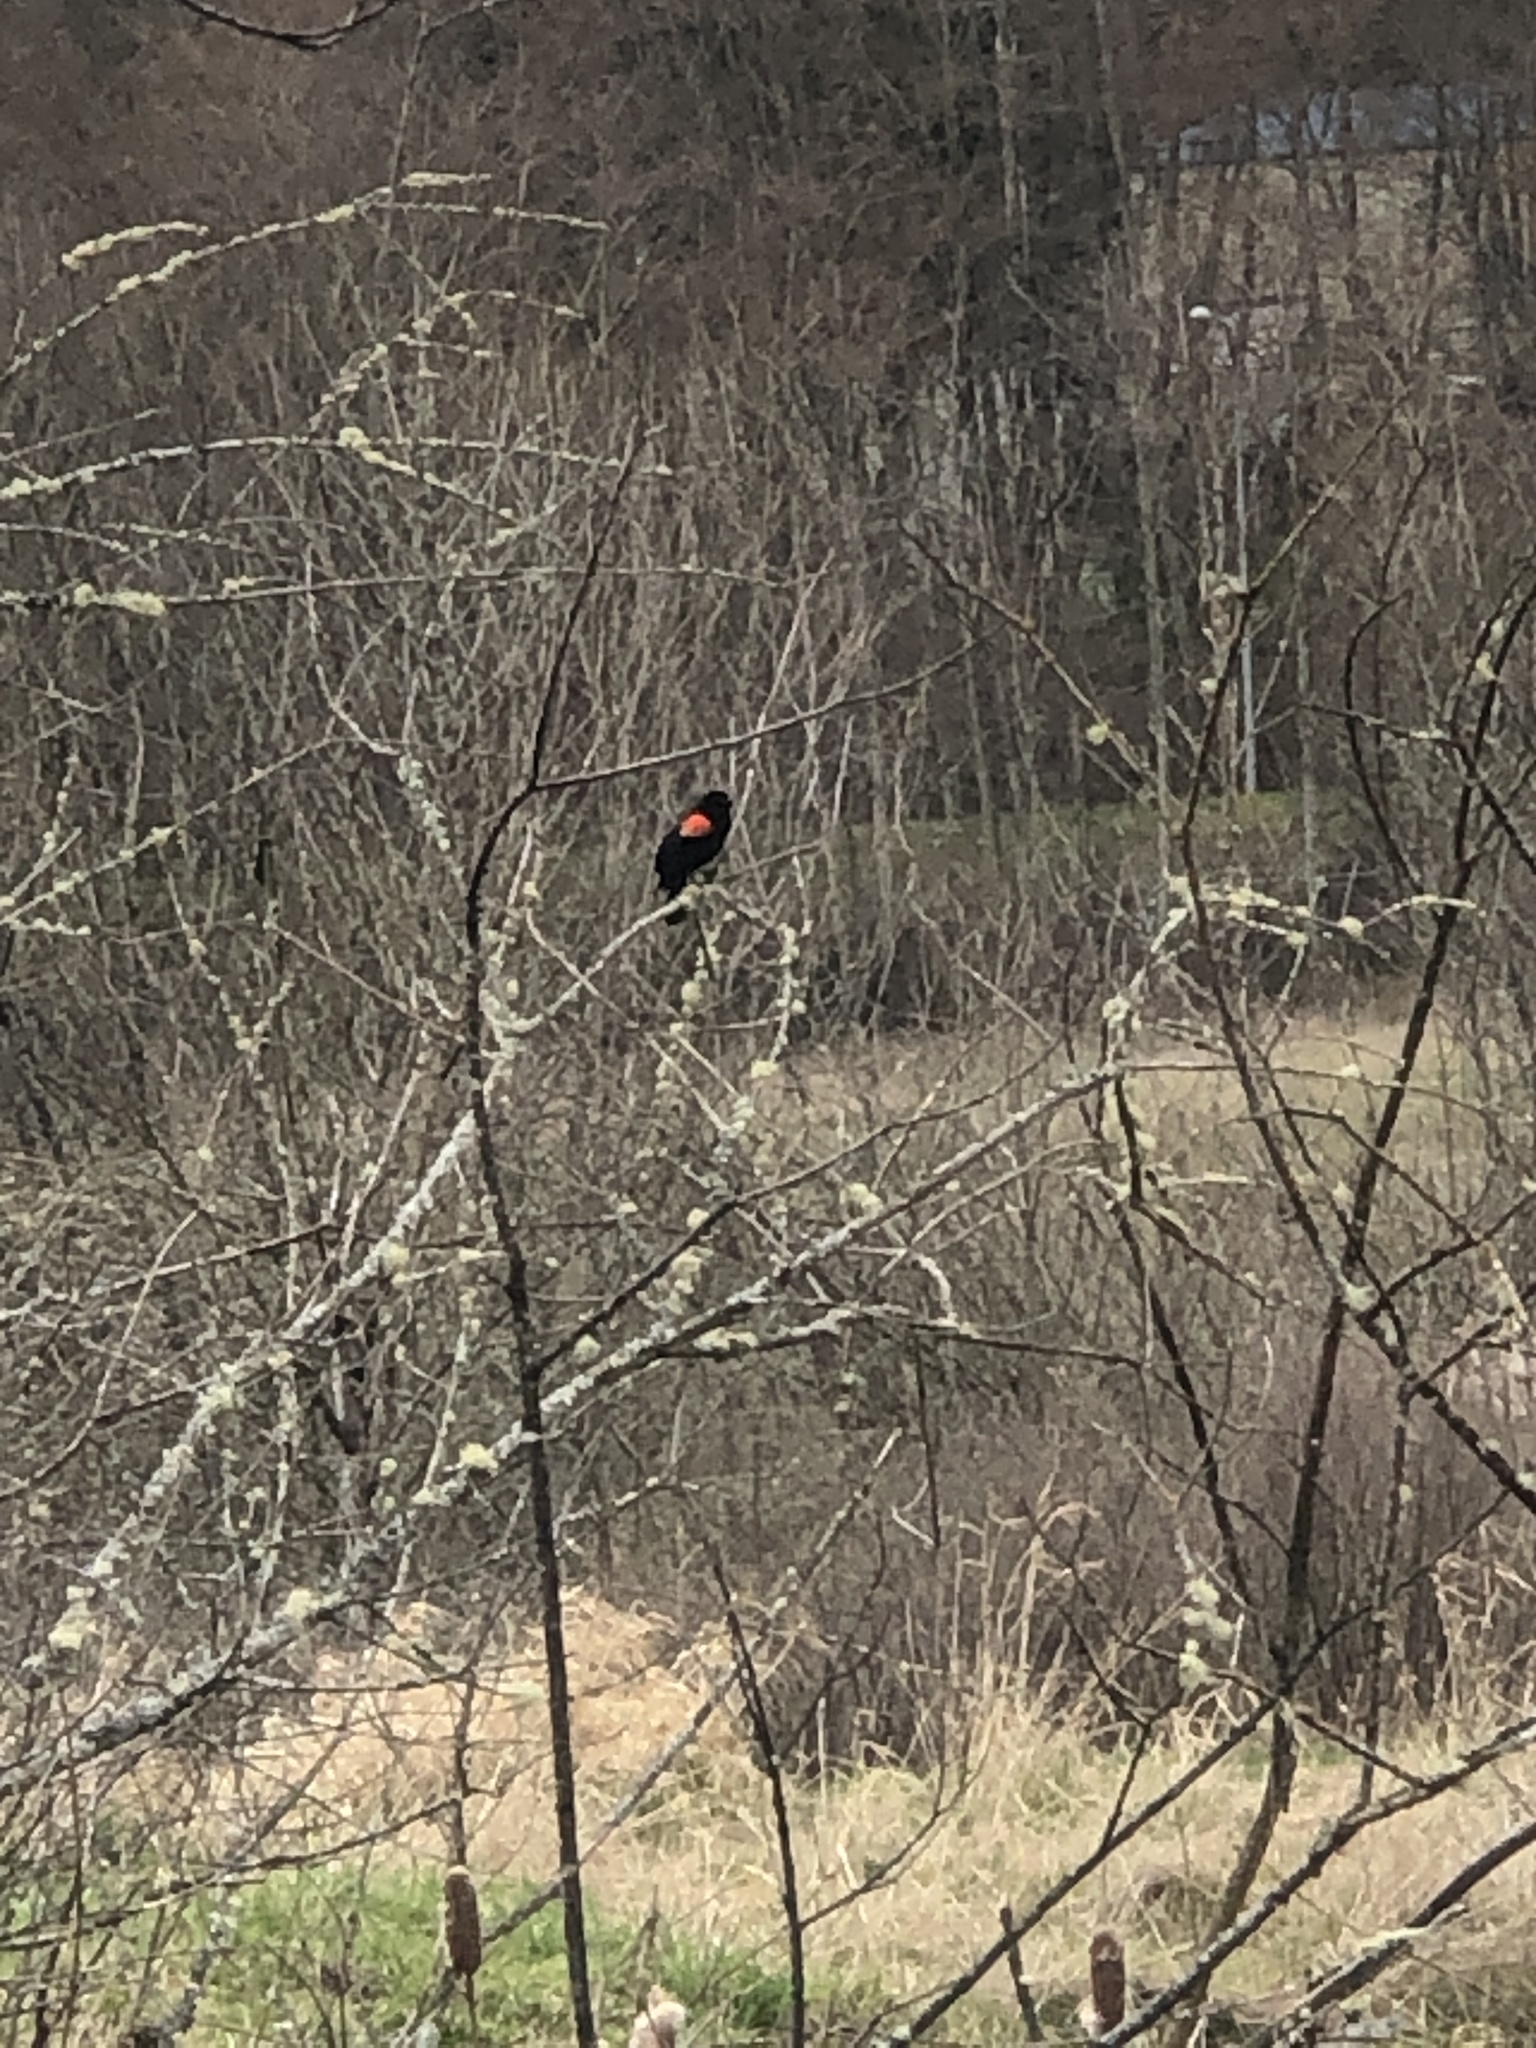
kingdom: Animalia
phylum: Chordata
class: Aves
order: Passeriformes
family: Icteridae
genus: Agelaius
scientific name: Agelaius phoeniceus
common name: Red-winged blackbird
